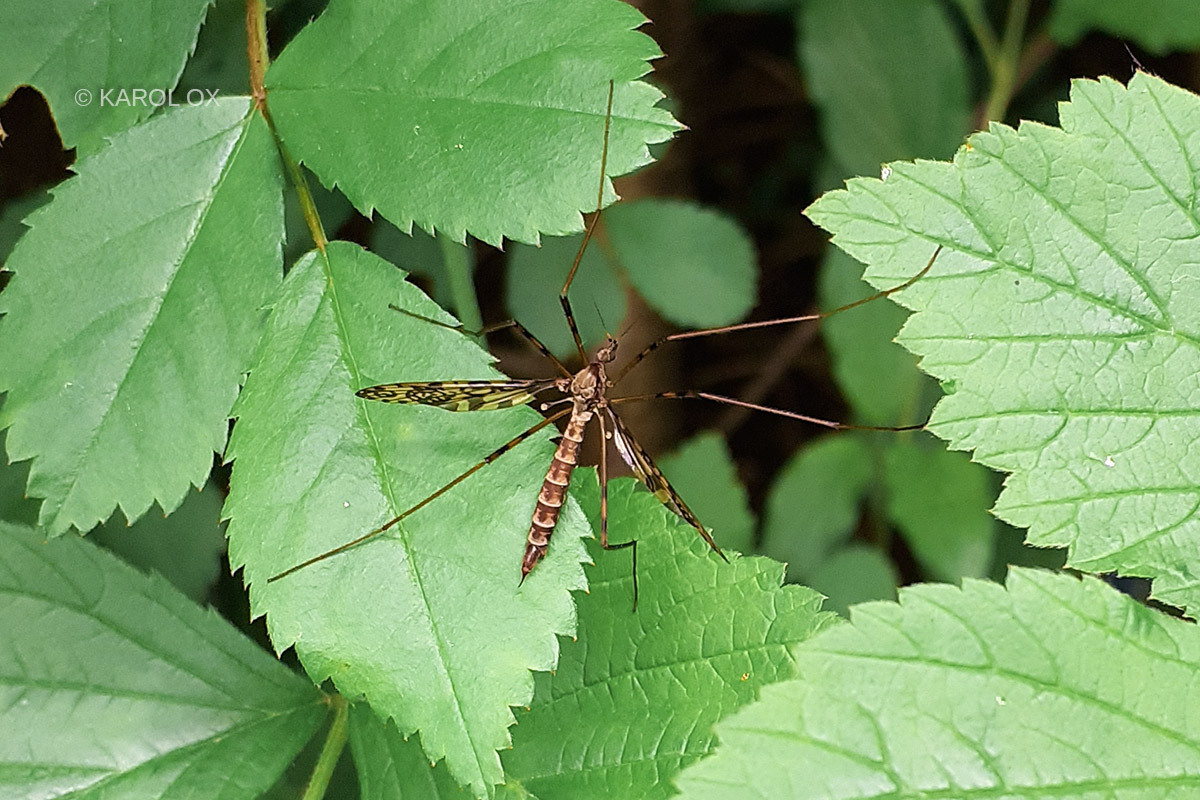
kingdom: Animalia
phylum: Arthropoda
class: Insecta
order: Diptera
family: Limoniidae
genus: Epiphragma
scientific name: Epiphragma ocellare
